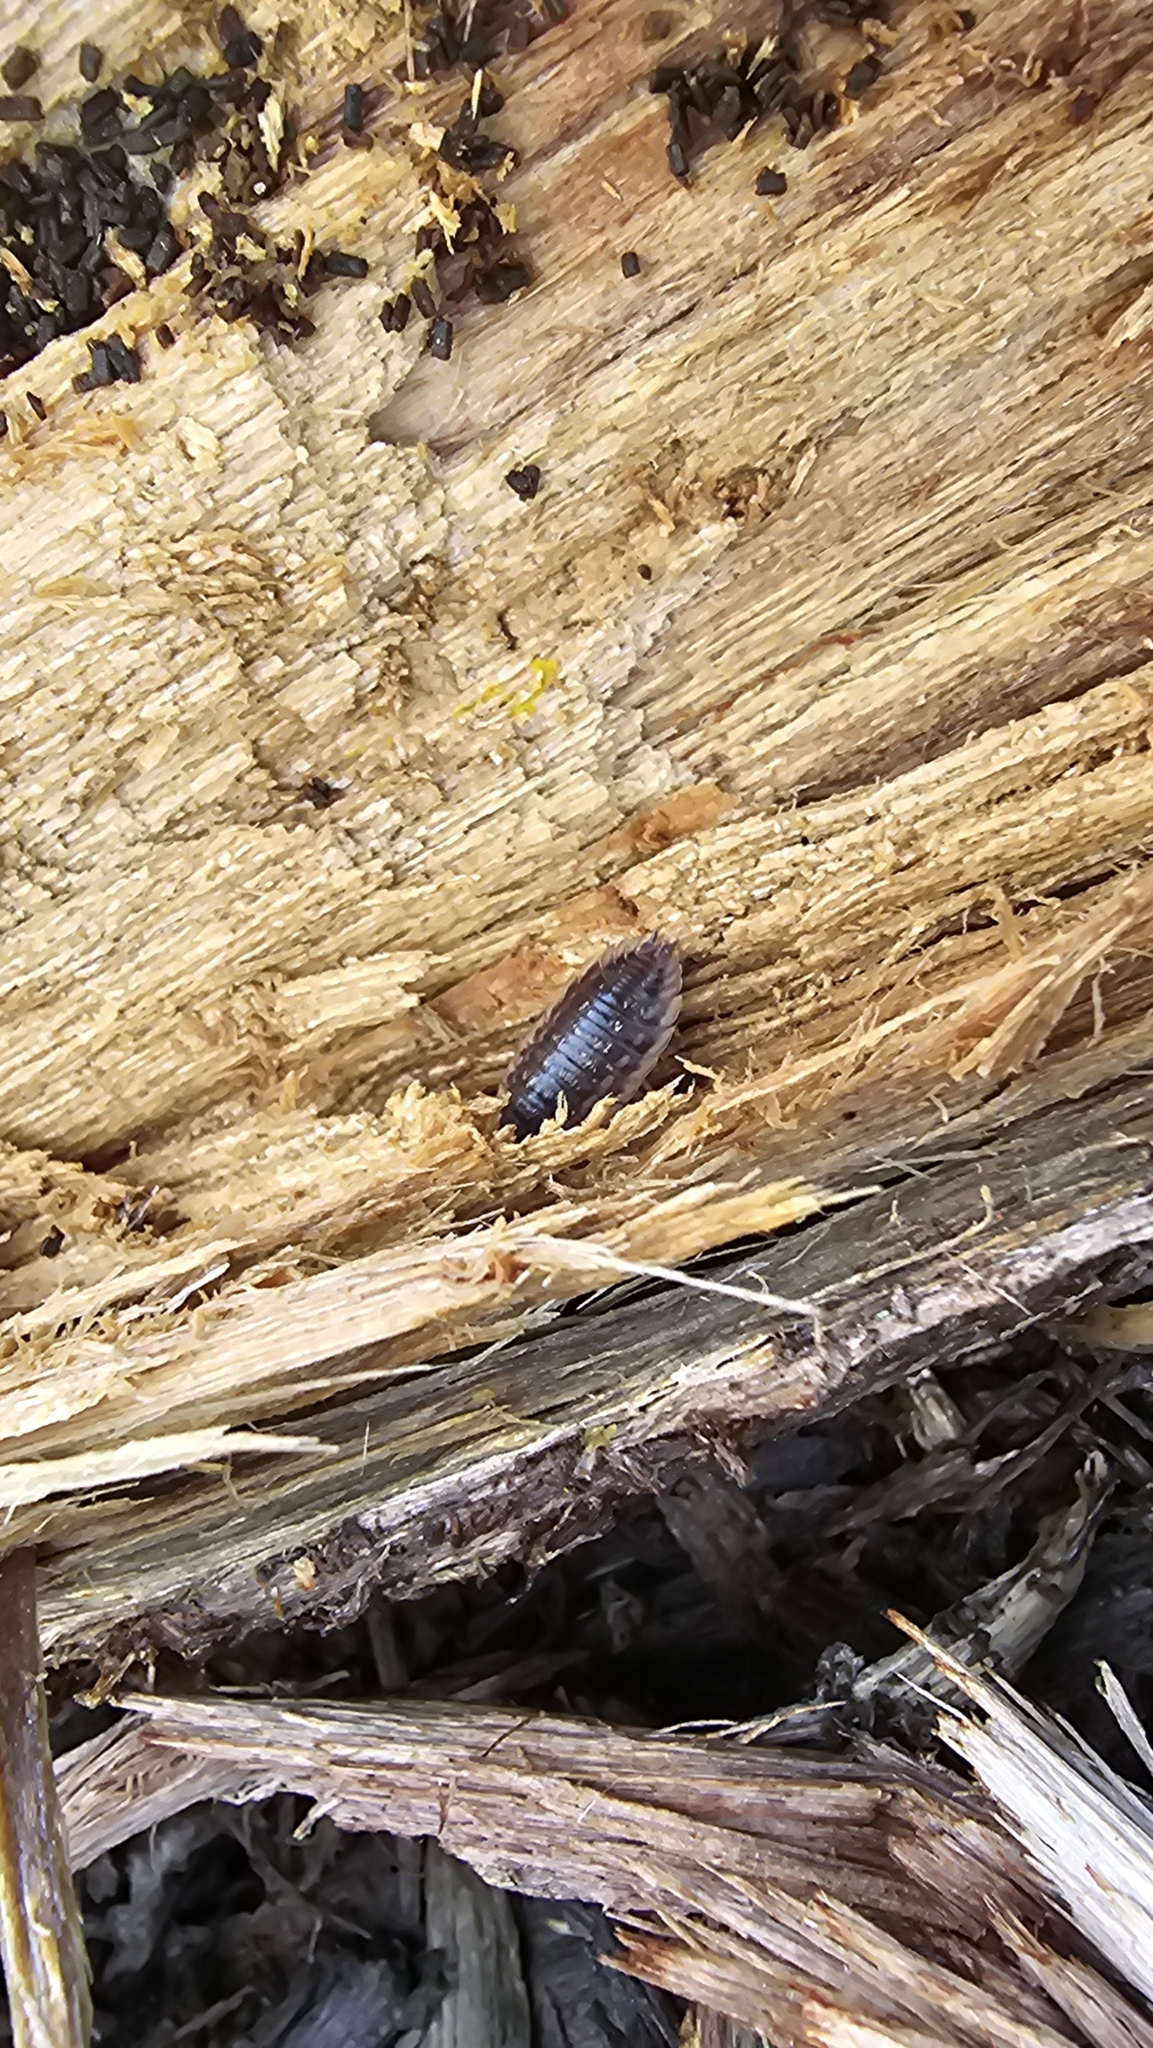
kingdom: Animalia
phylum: Arthropoda
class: Malacostraca
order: Isopoda
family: Oniscidae
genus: Oniscus
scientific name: Oniscus asellus
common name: Common shiny woodlouse
